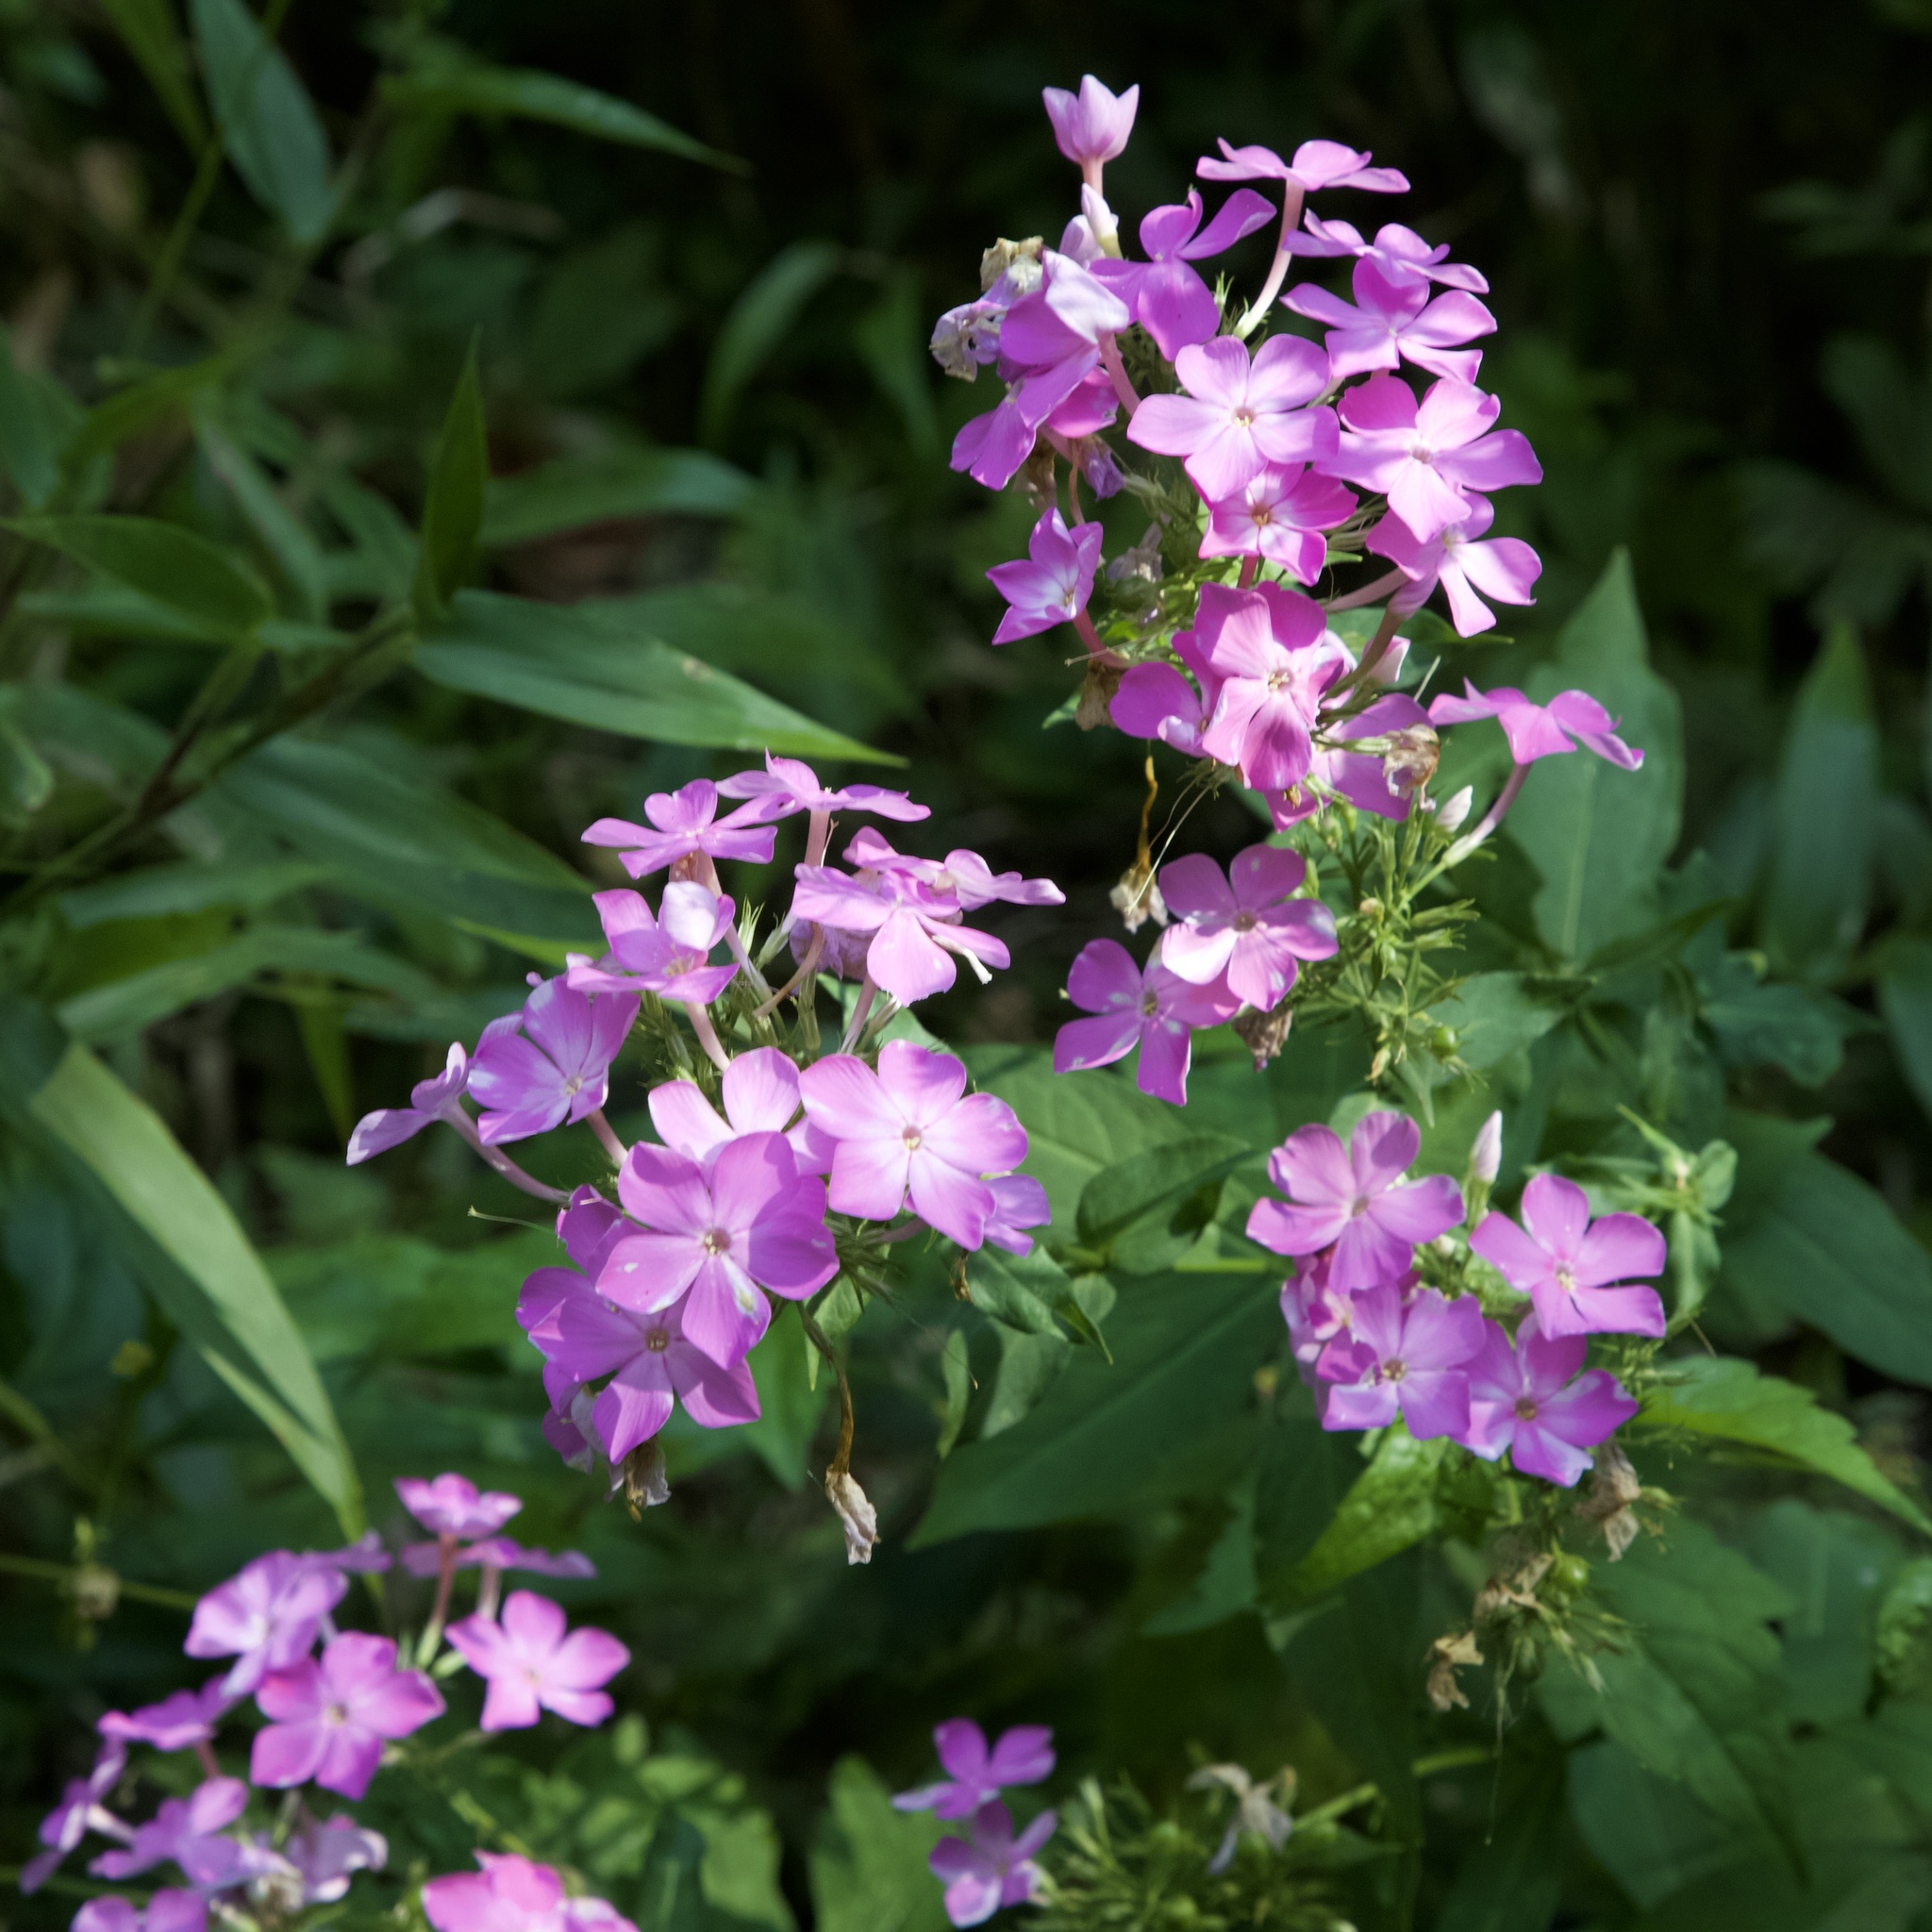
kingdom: Plantae
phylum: Tracheophyta
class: Magnoliopsida
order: Ericales
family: Polemoniaceae
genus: Phlox
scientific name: Phlox paniculata
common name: Fall phlox
